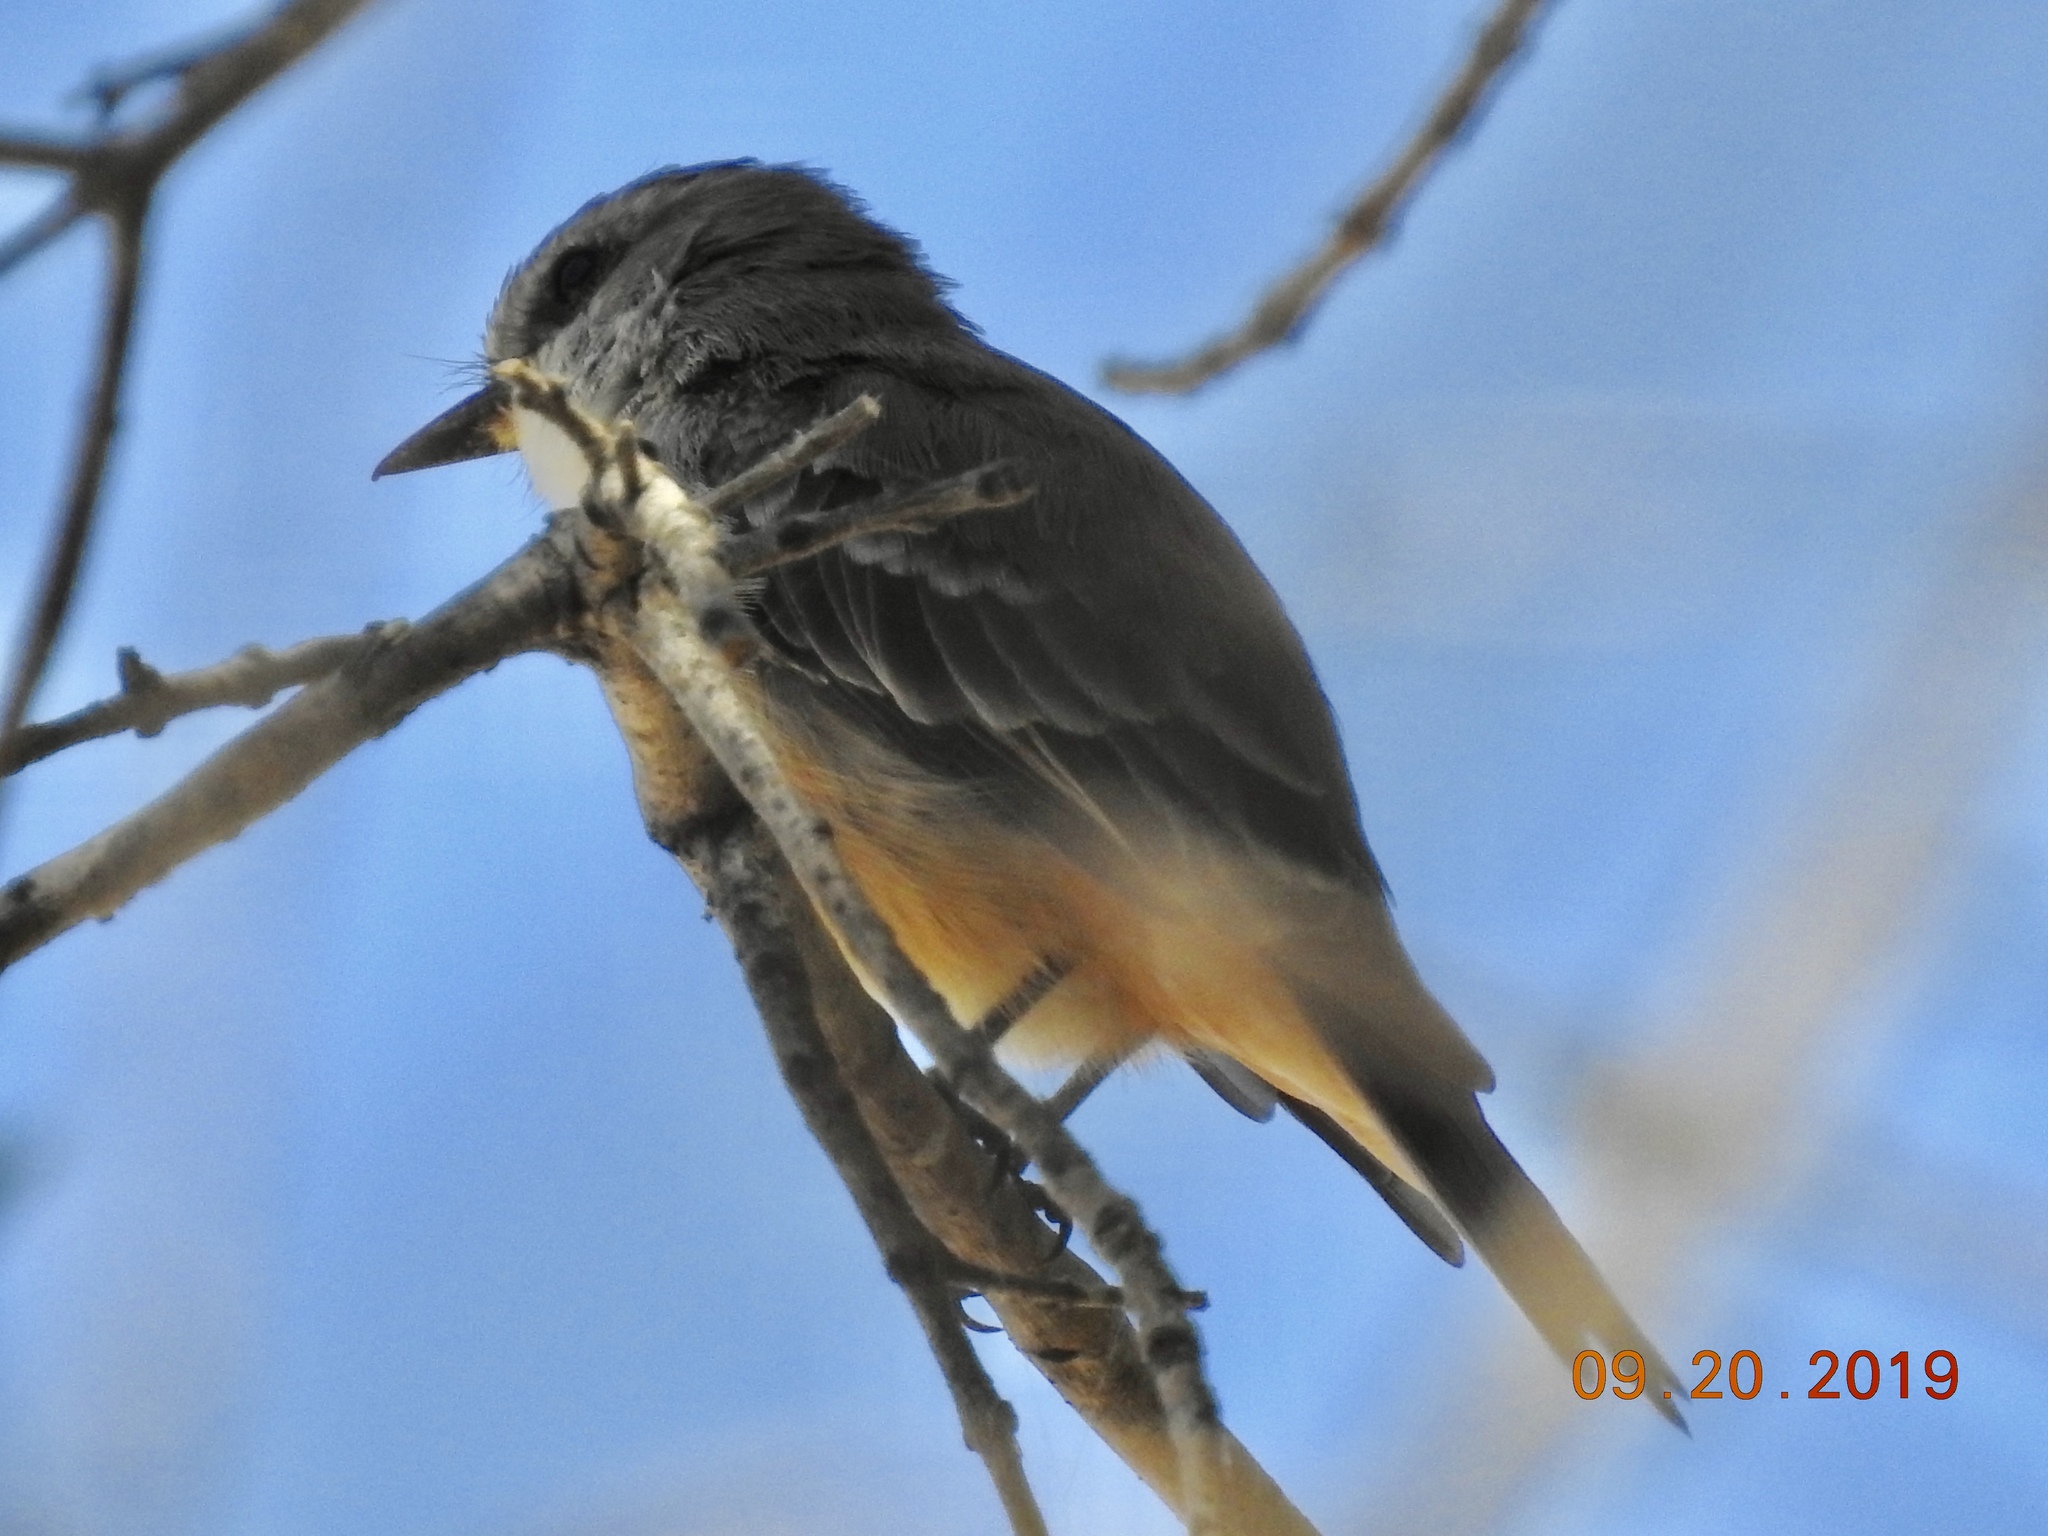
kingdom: Animalia
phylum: Chordata
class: Aves
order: Passeriformes
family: Tyrannidae
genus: Pyrocephalus
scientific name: Pyrocephalus rubinus
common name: Vermilion flycatcher
